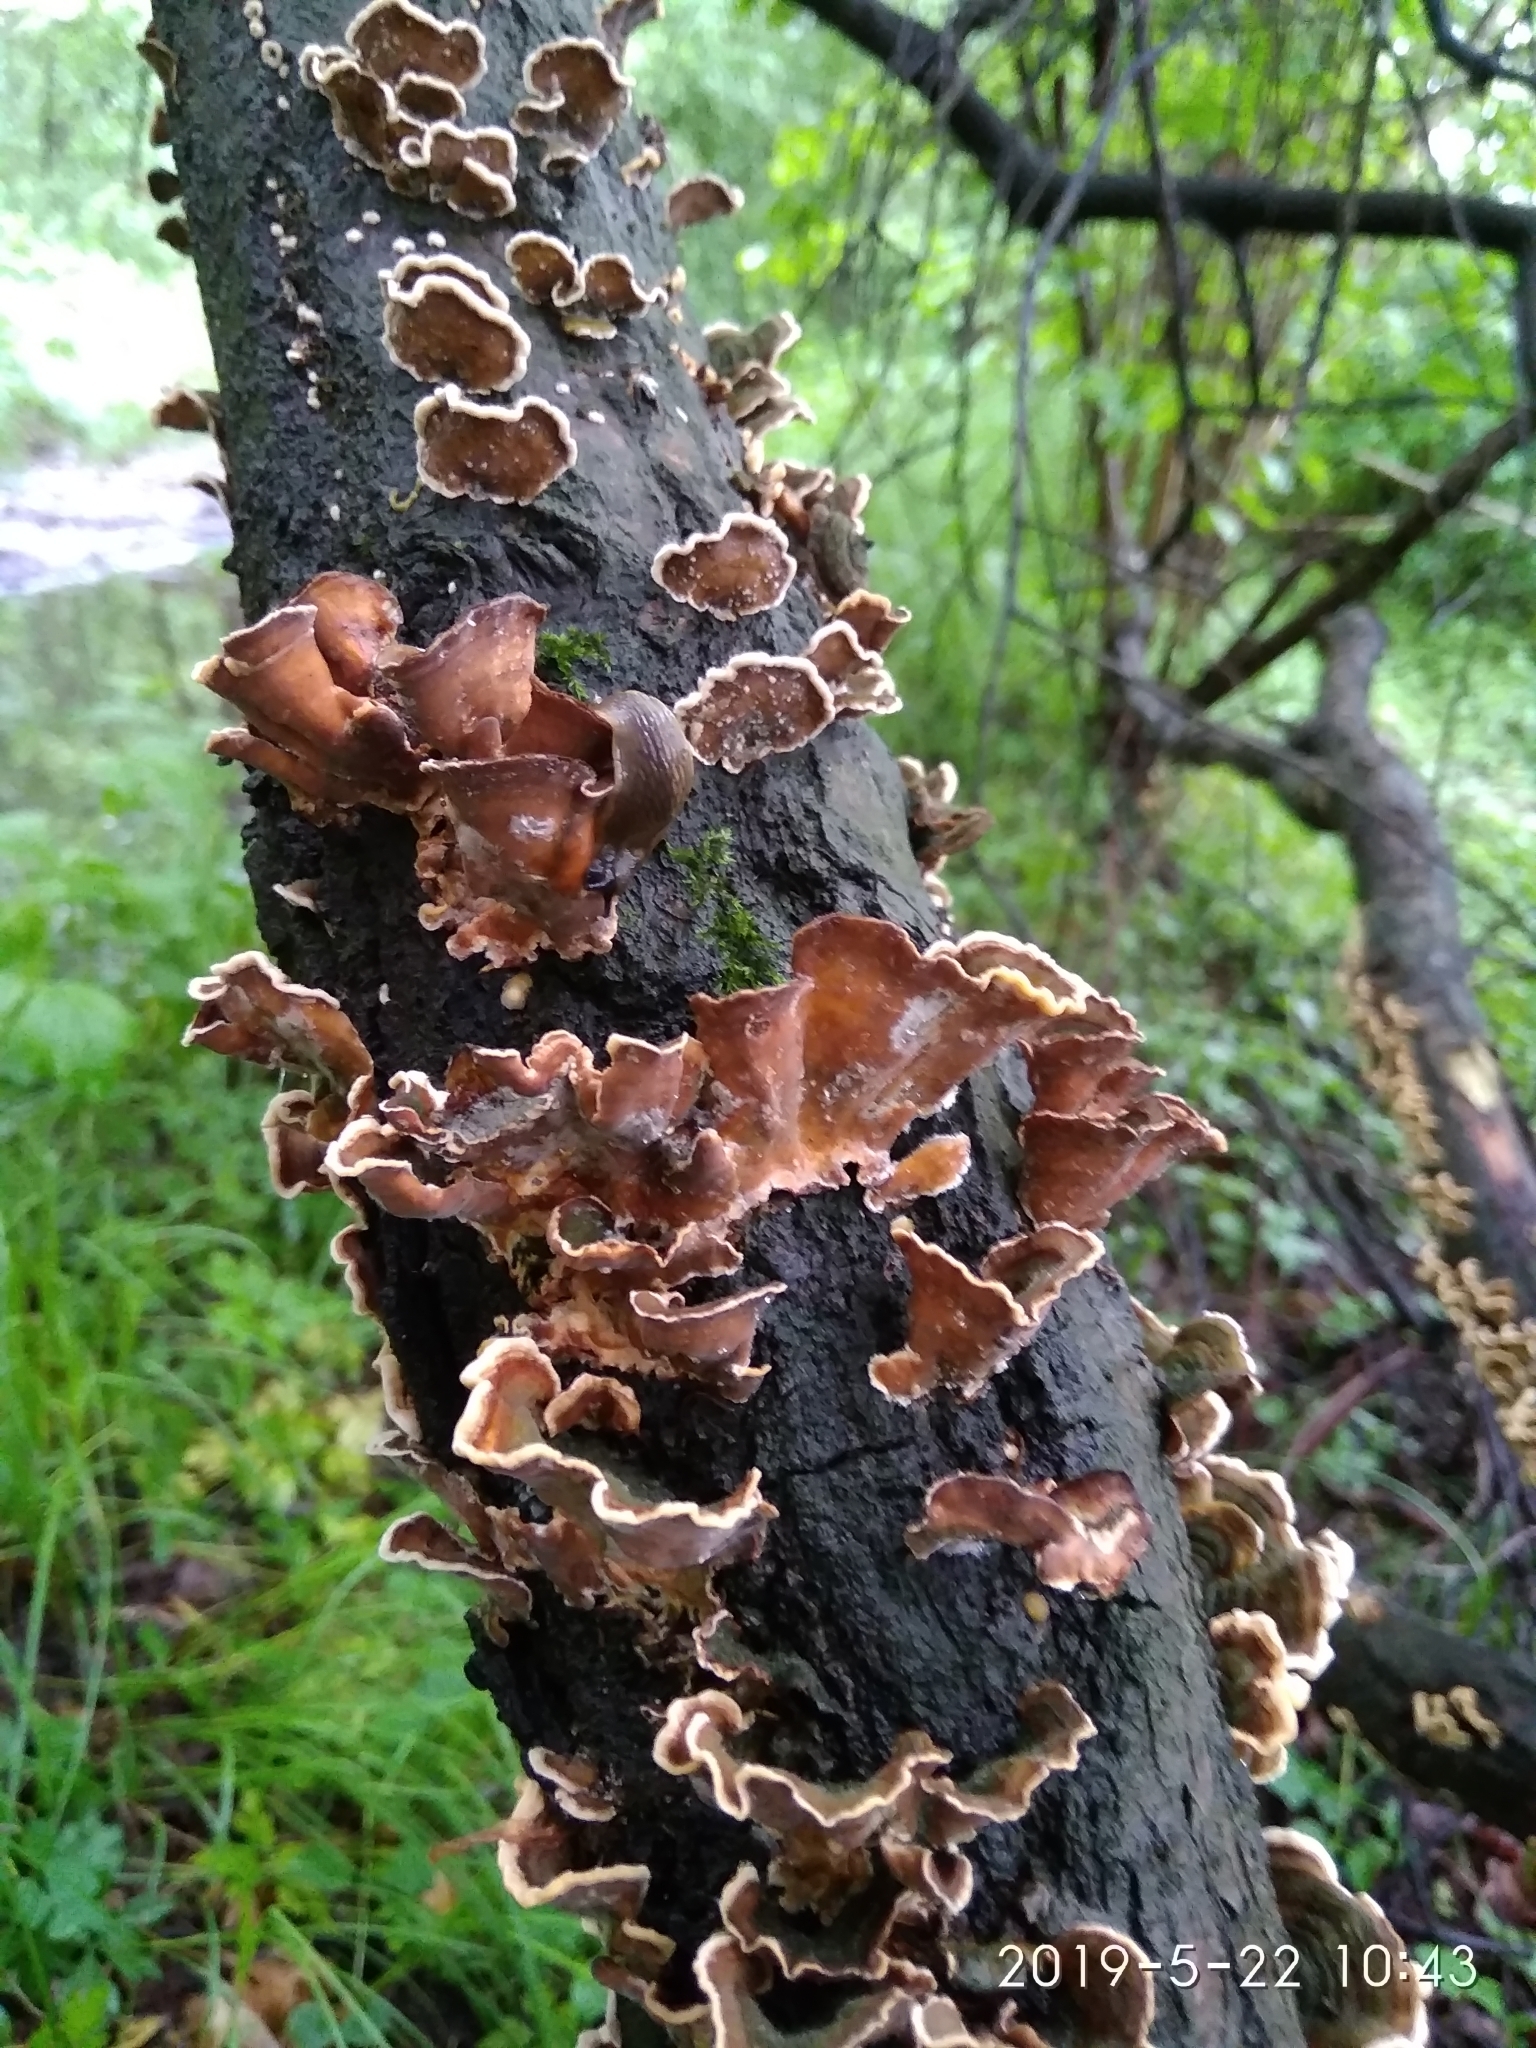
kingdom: Fungi
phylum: Basidiomycota
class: Agaricomycetes
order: Russulales
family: Stereaceae
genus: Stereum
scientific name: Stereum hirsutum
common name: Hairy curtain crust
